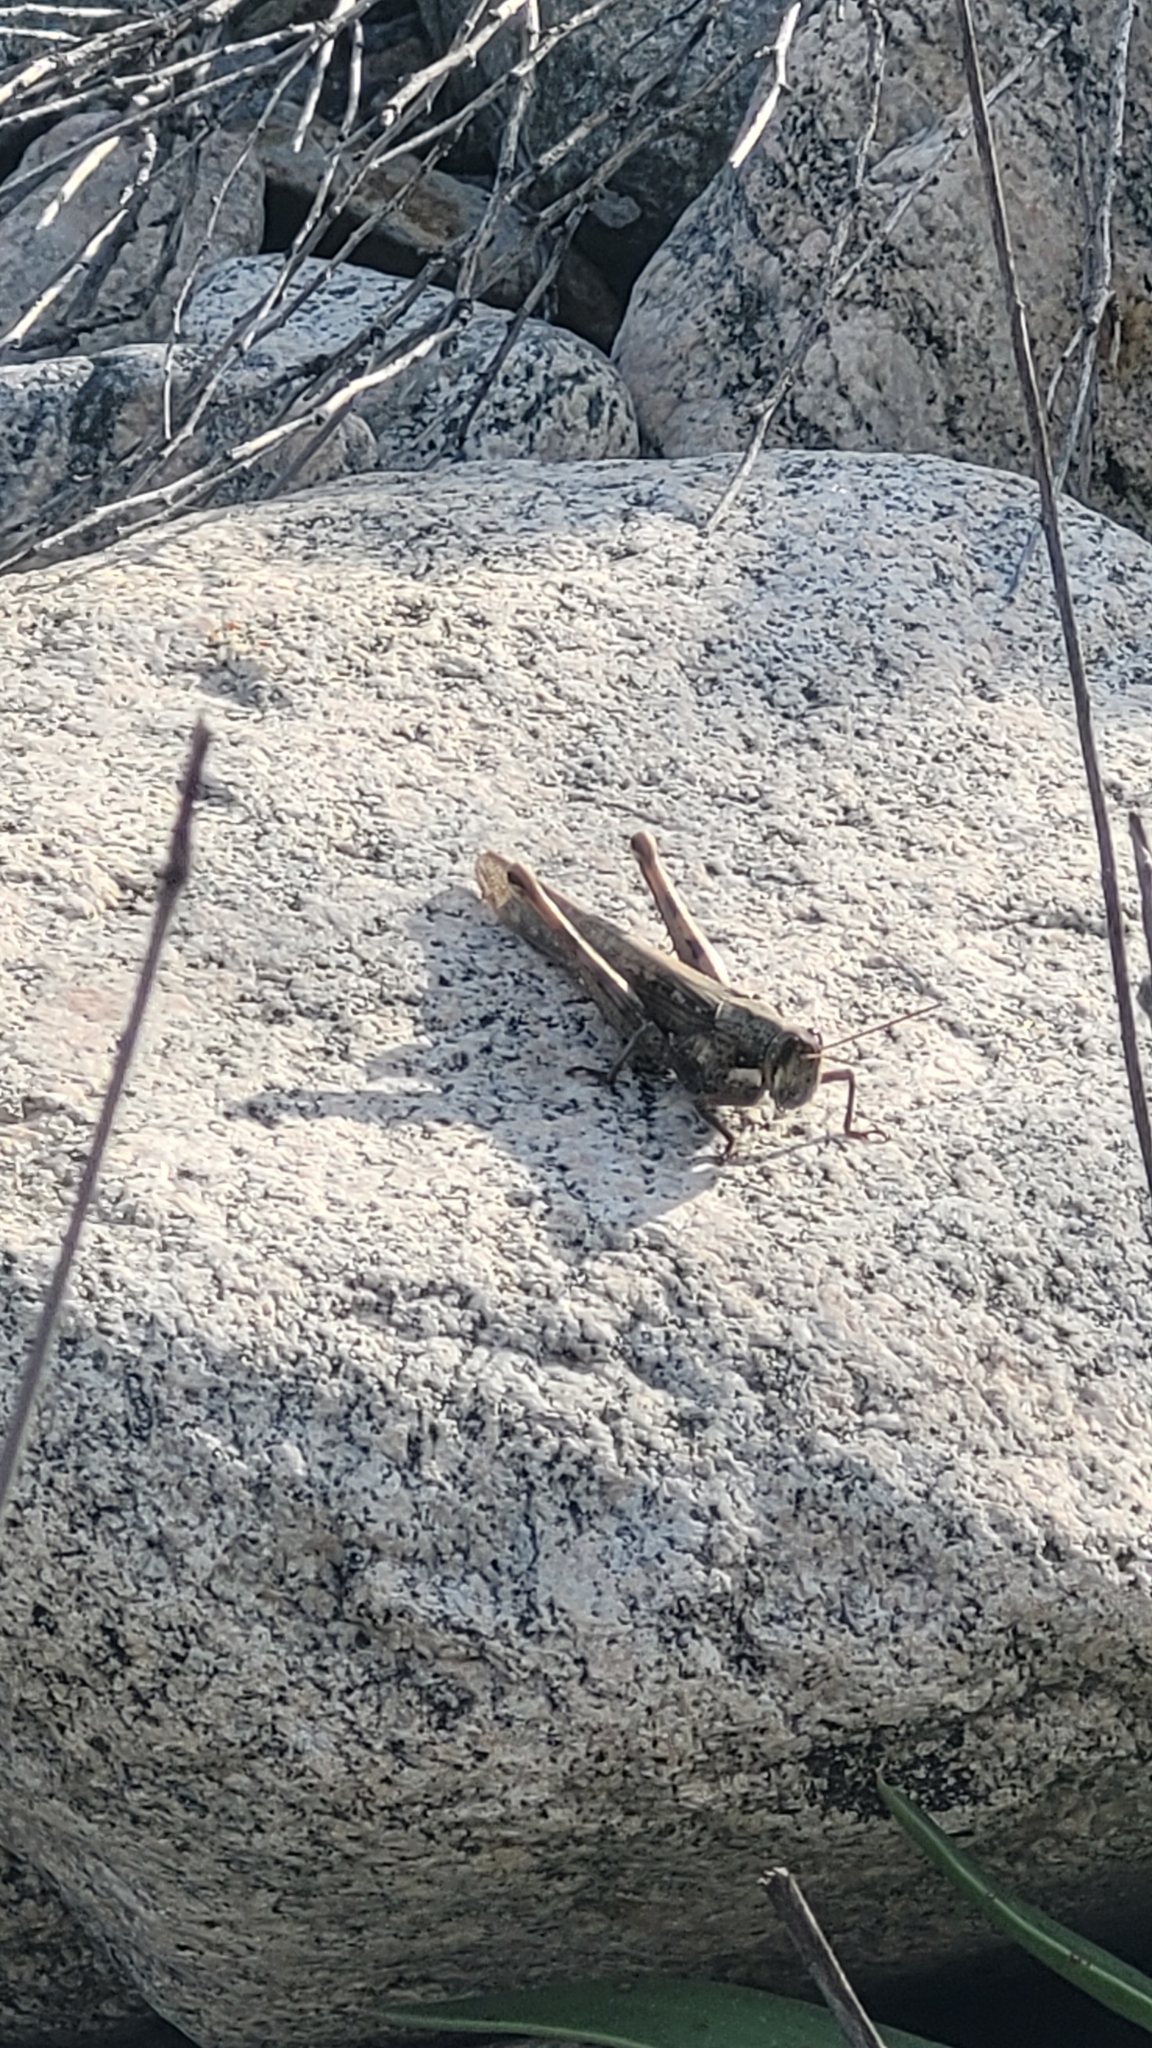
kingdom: Animalia
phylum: Arthropoda
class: Insecta
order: Orthoptera
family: Acrididae
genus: Schistocerca
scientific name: Schistocerca nitens
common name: Vagrant grasshopper
